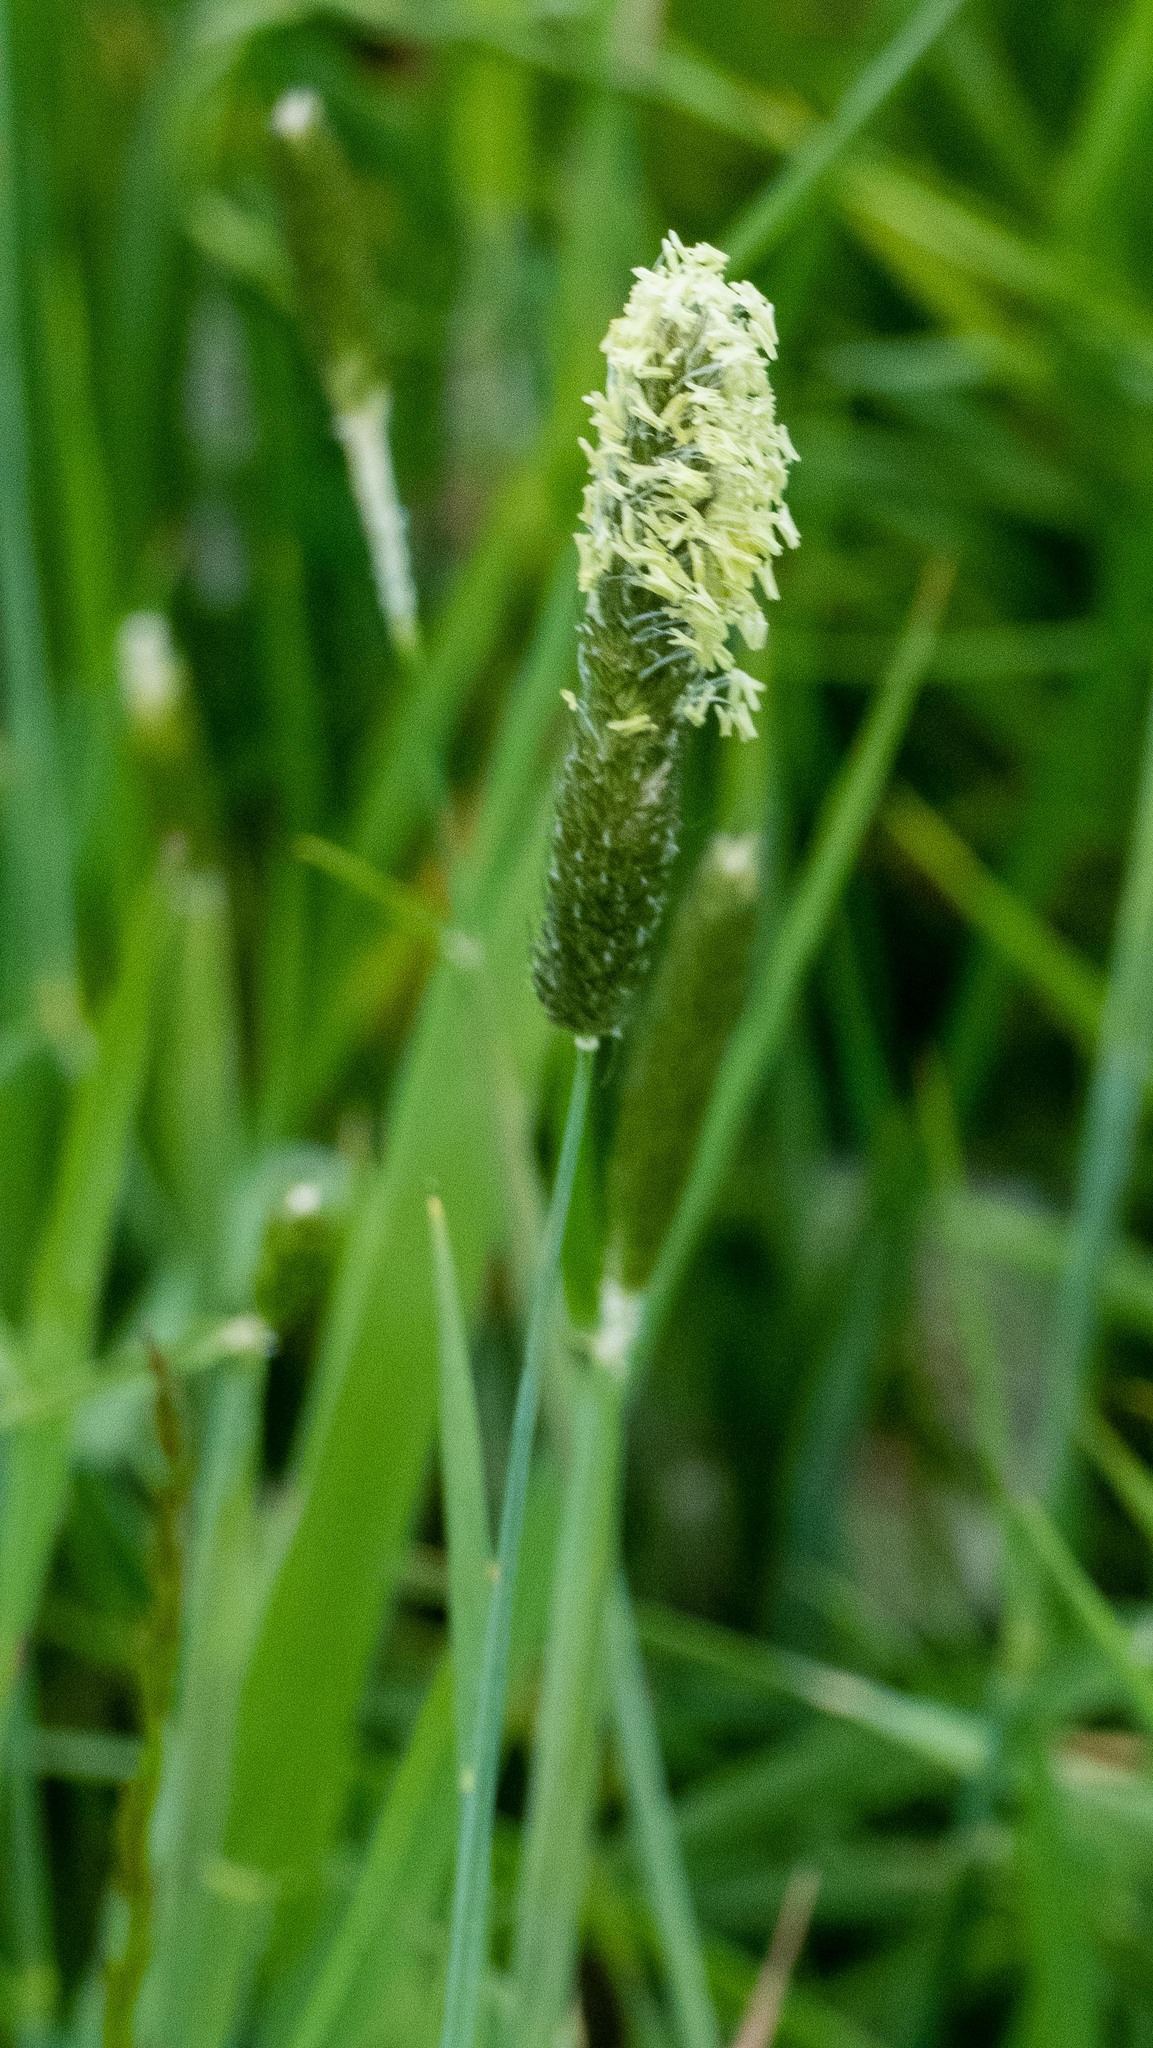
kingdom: Plantae
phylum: Tracheophyta
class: Liliopsida
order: Poales
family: Poaceae
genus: Alopecurus
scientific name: Alopecurus pratensis
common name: Meadow foxtail
